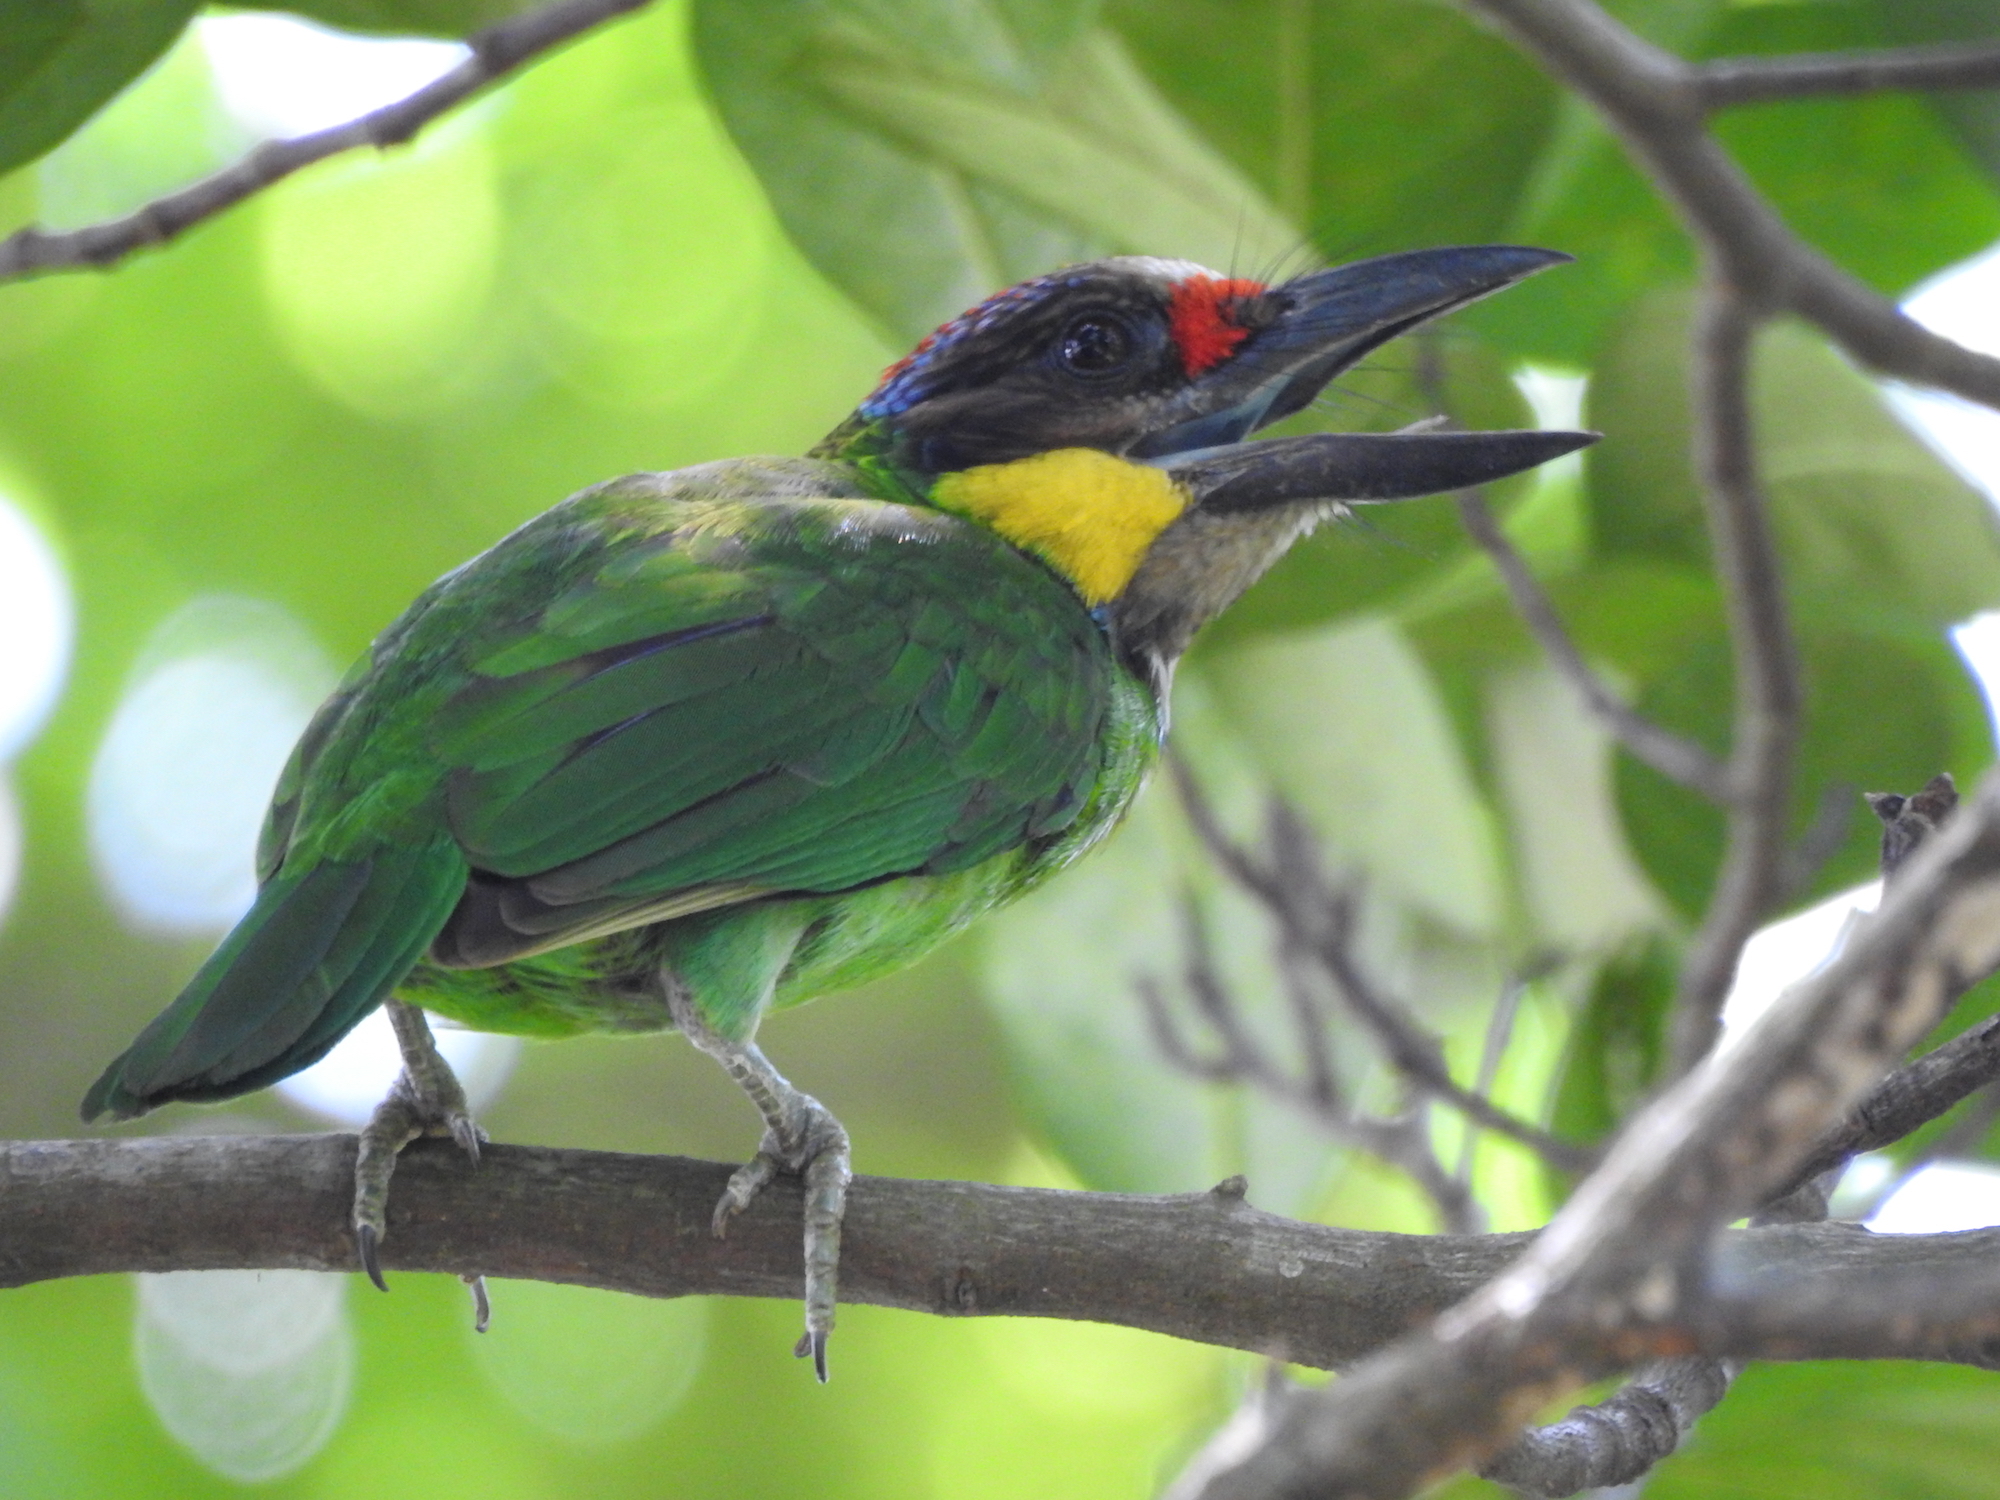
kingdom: Animalia
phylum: Chordata
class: Aves
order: Piciformes
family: Megalaimidae
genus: Psilopogon
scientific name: Psilopogon chrysopogon
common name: Golden-whiskered barbet
